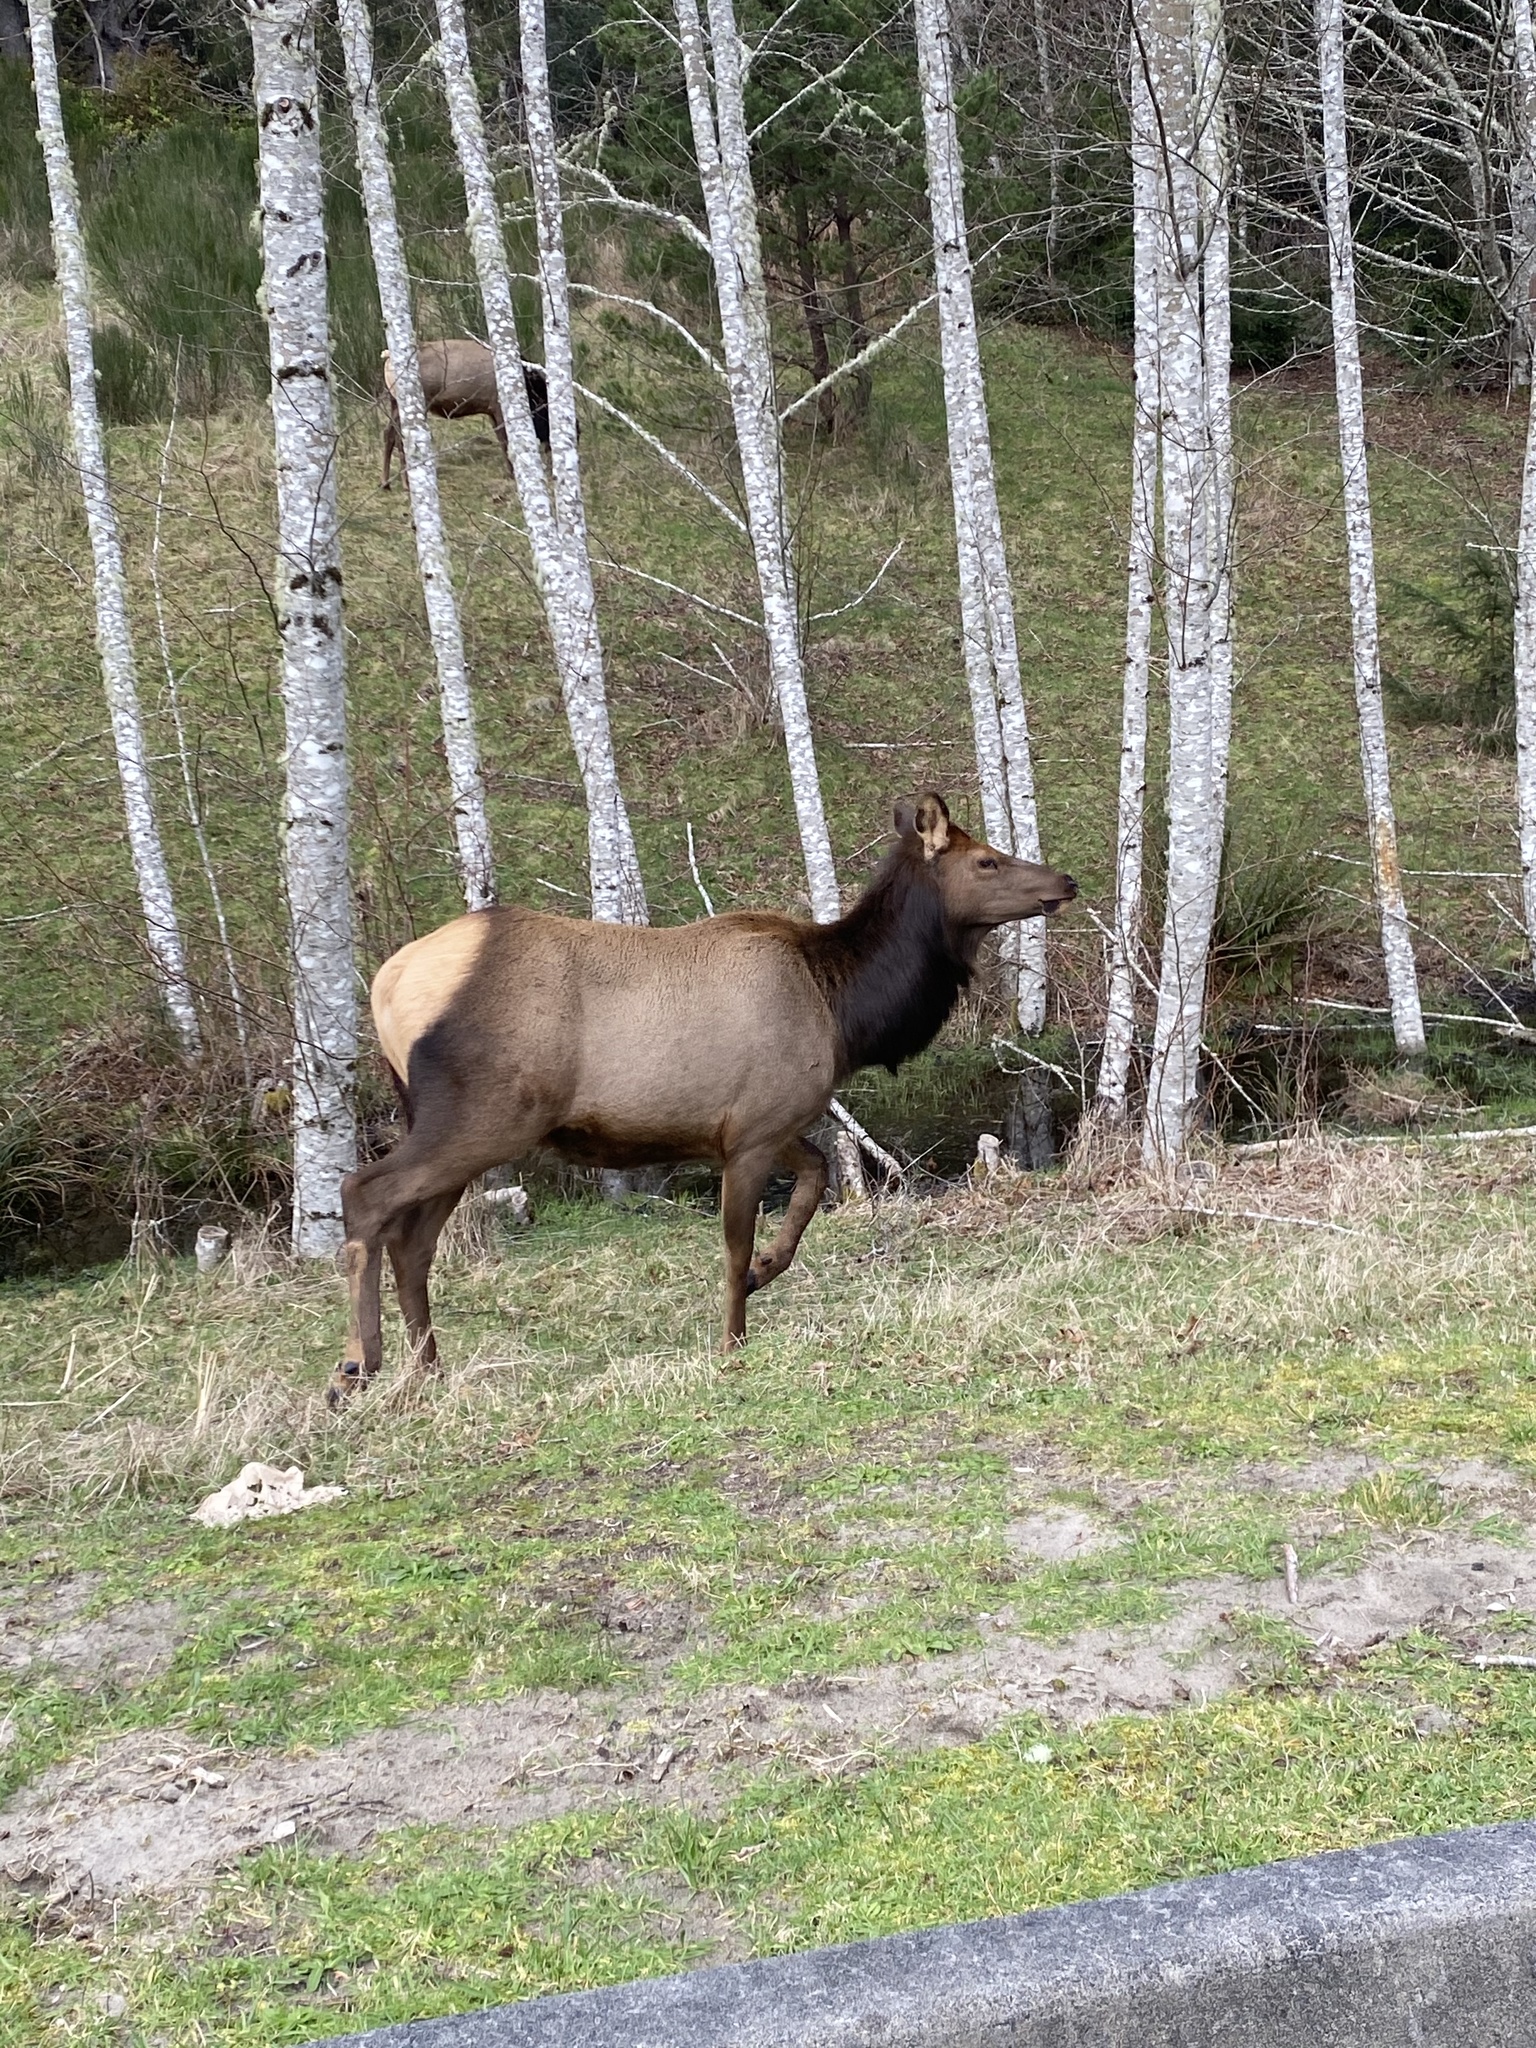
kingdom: Animalia
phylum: Chordata
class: Mammalia
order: Artiodactyla
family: Cervidae
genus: Cervus
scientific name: Cervus elaphus
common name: Red deer
